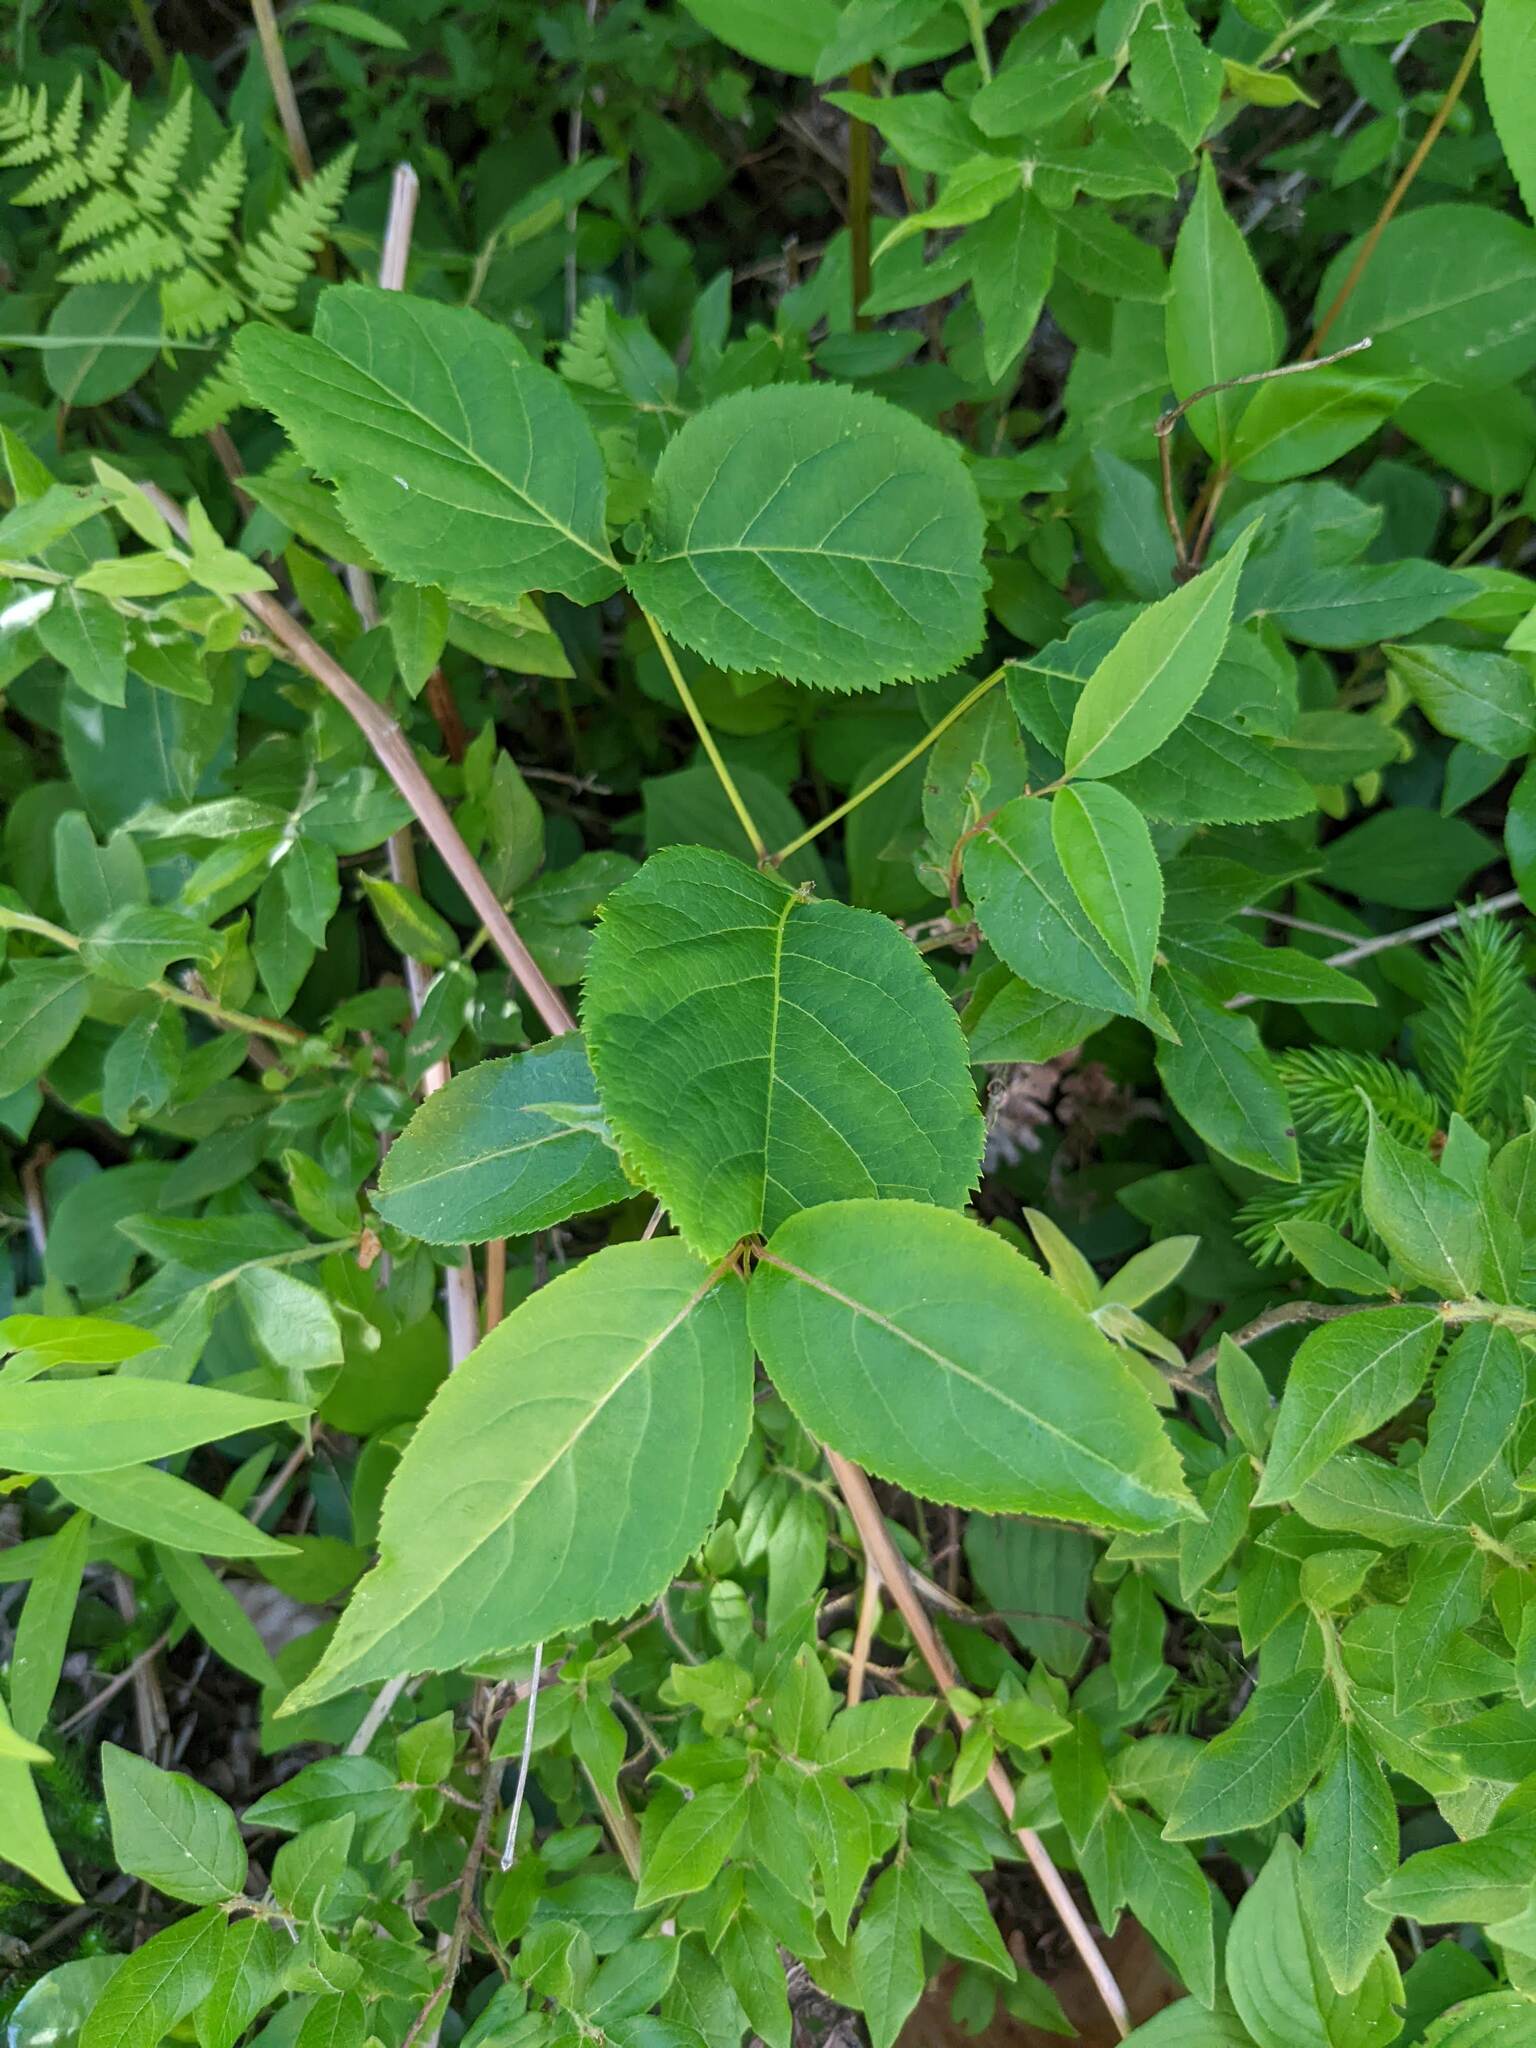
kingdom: Plantae
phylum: Tracheophyta
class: Magnoliopsida
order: Apiales
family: Araliaceae
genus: Aralia
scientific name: Aralia nudicaulis
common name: Wild sarsaparilla
